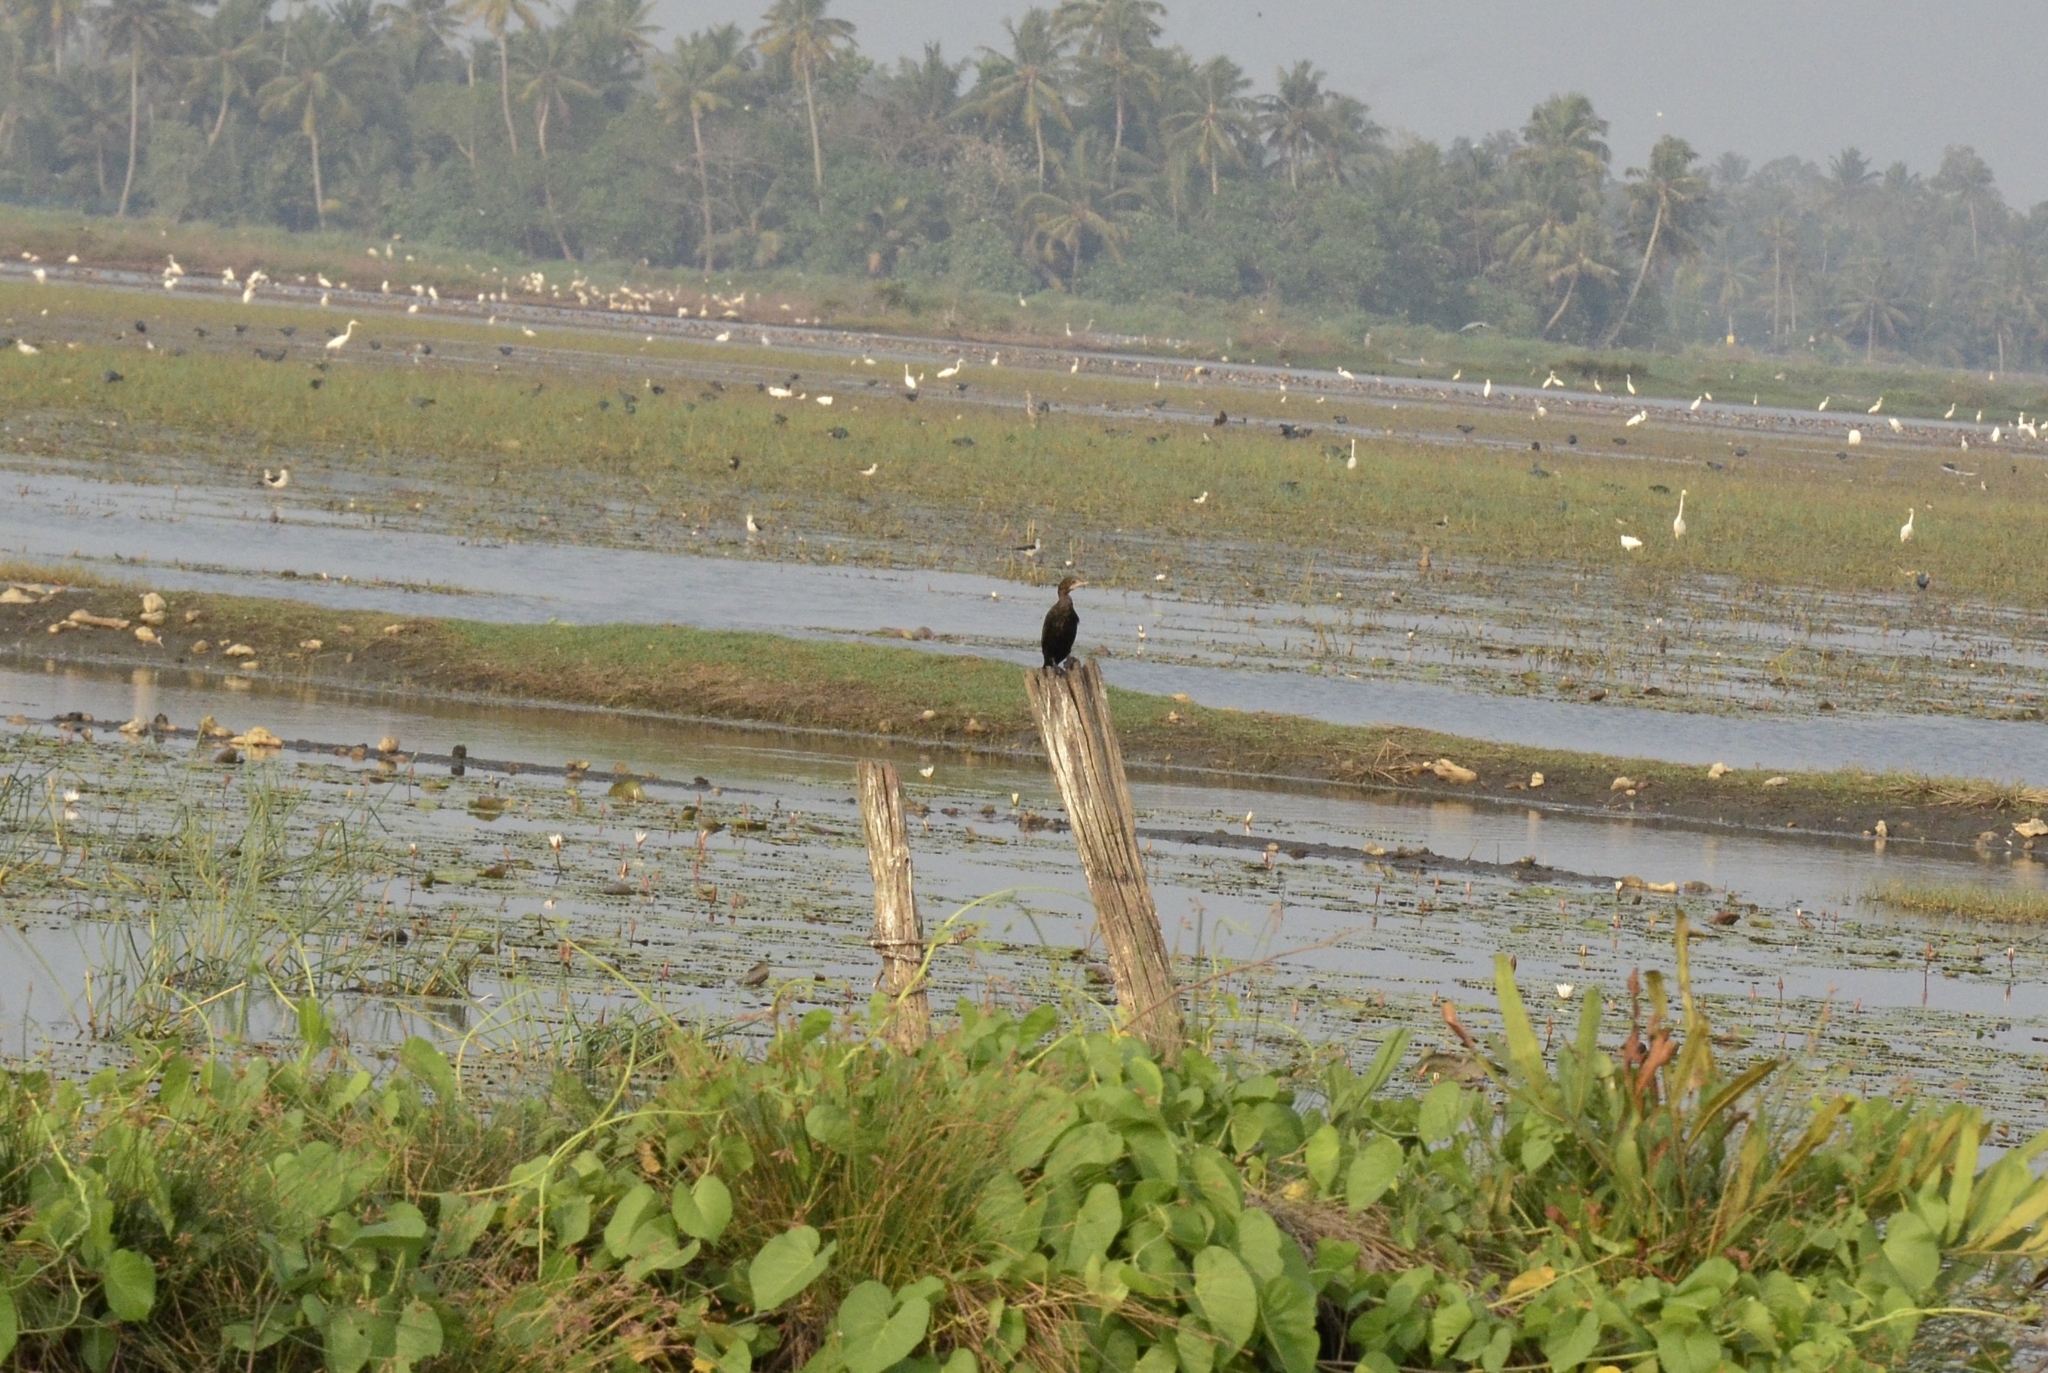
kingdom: Animalia
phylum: Chordata
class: Aves
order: Suliformes
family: Phalacrocoracidae
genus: Microcarbo
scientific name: Microcarbo niger
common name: Little cormorant
